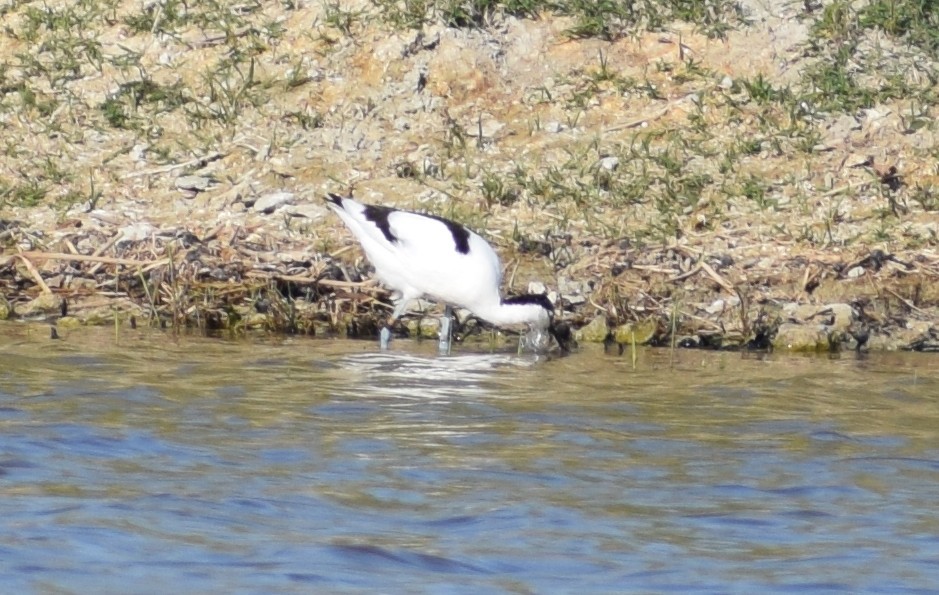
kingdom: Animalia
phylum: Chordata
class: Aves
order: Charadriiformes
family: Recurvirostridae
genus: Recurvirostra
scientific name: Recurvirostra avosetta
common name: Pied avocet
